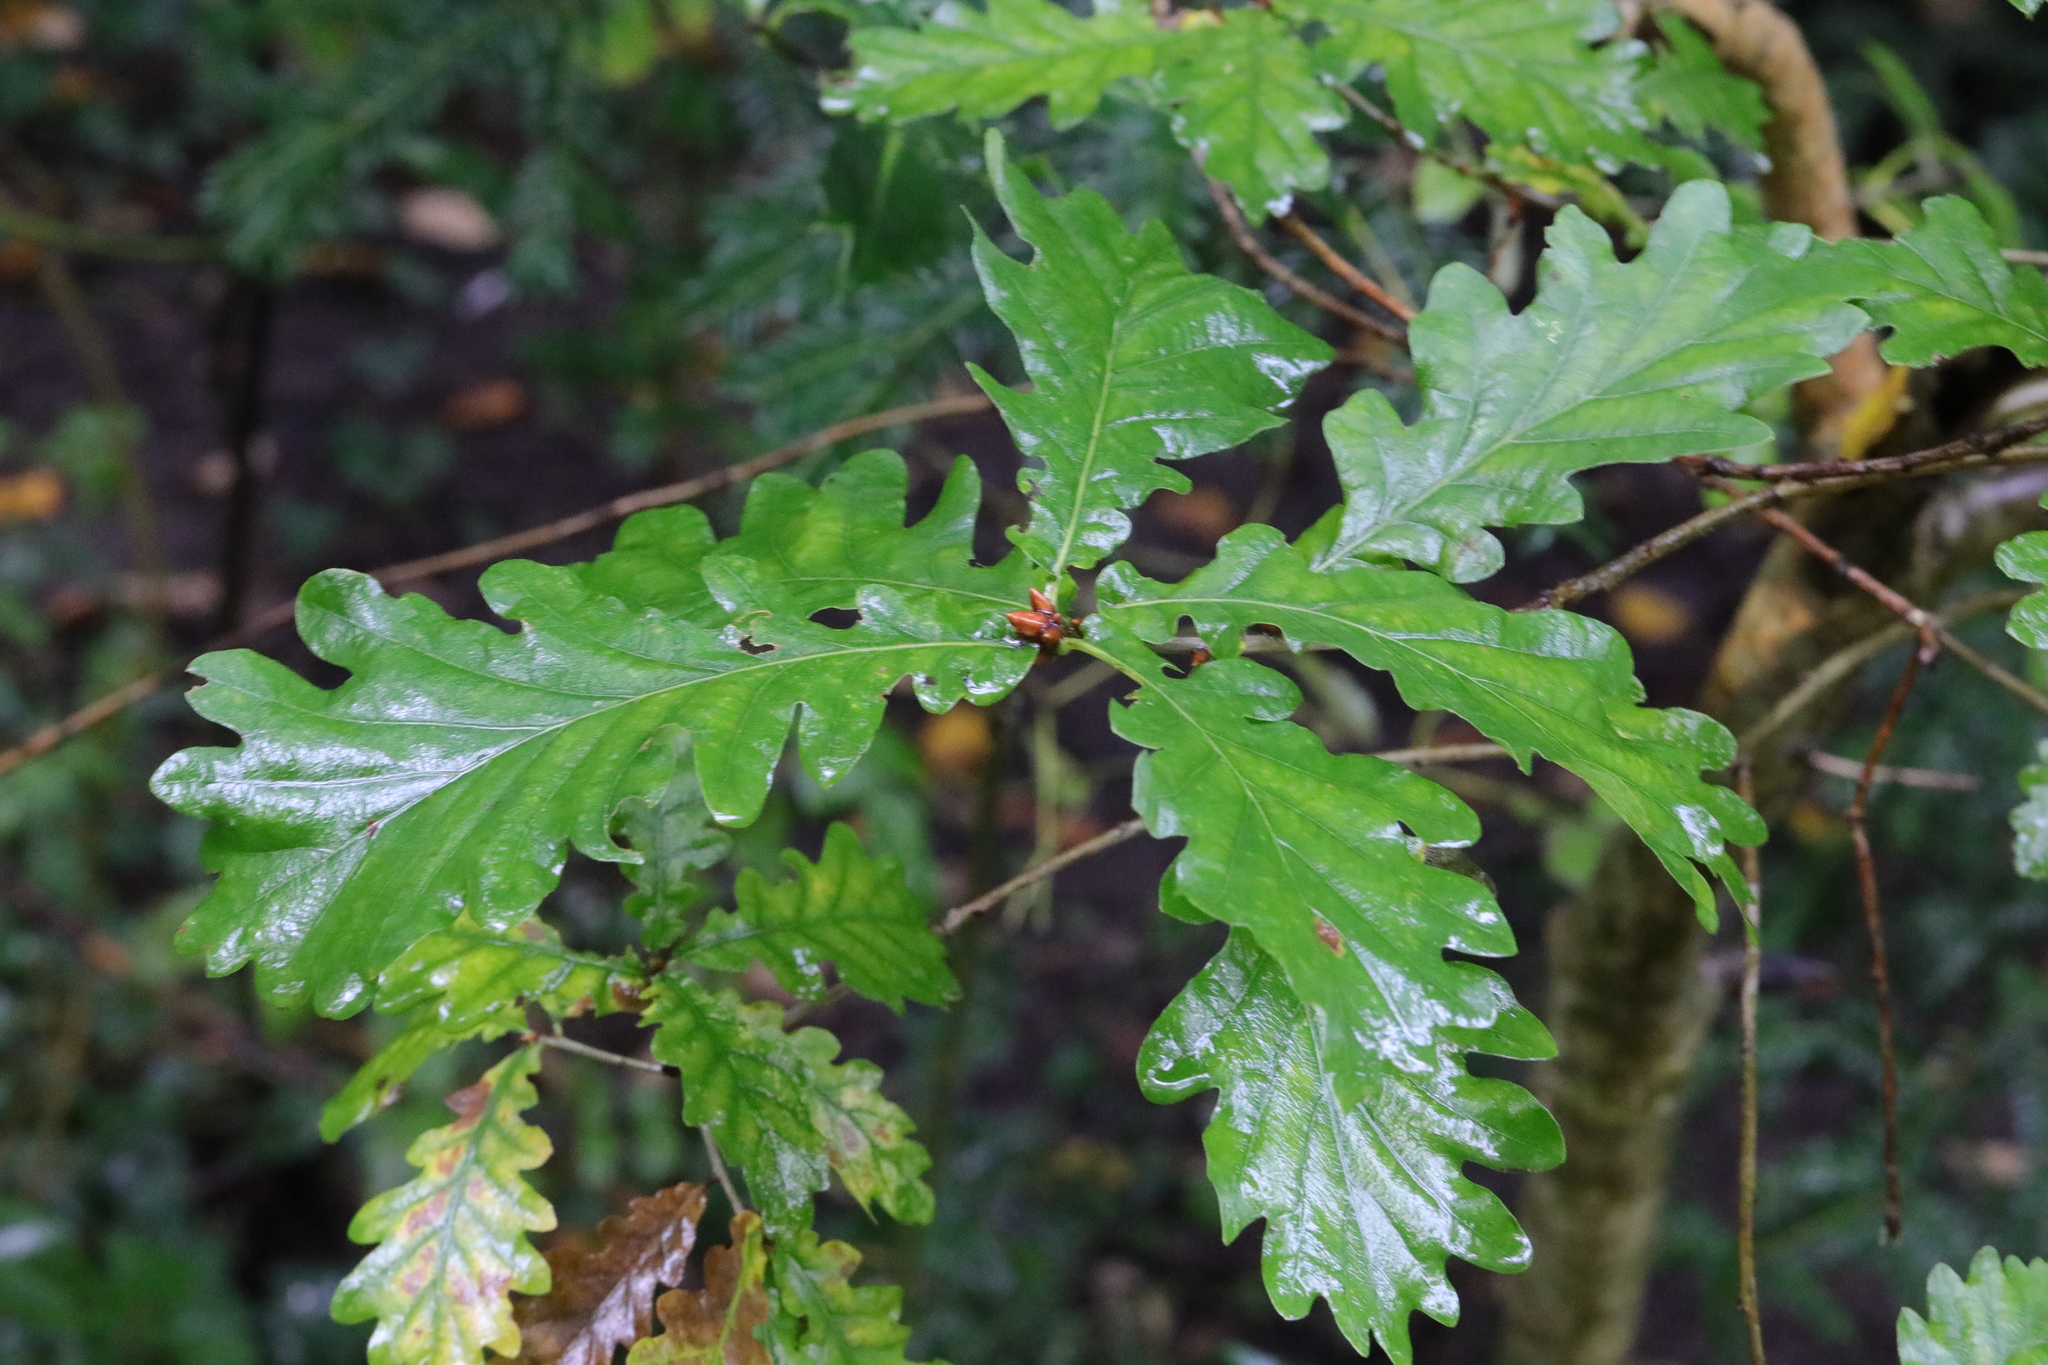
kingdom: Plantae
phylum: Tracheophyta
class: Magnoliopsida
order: Fagales
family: Fagaceae
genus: Quercus
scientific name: Quercus robur
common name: Pedunculate oak
